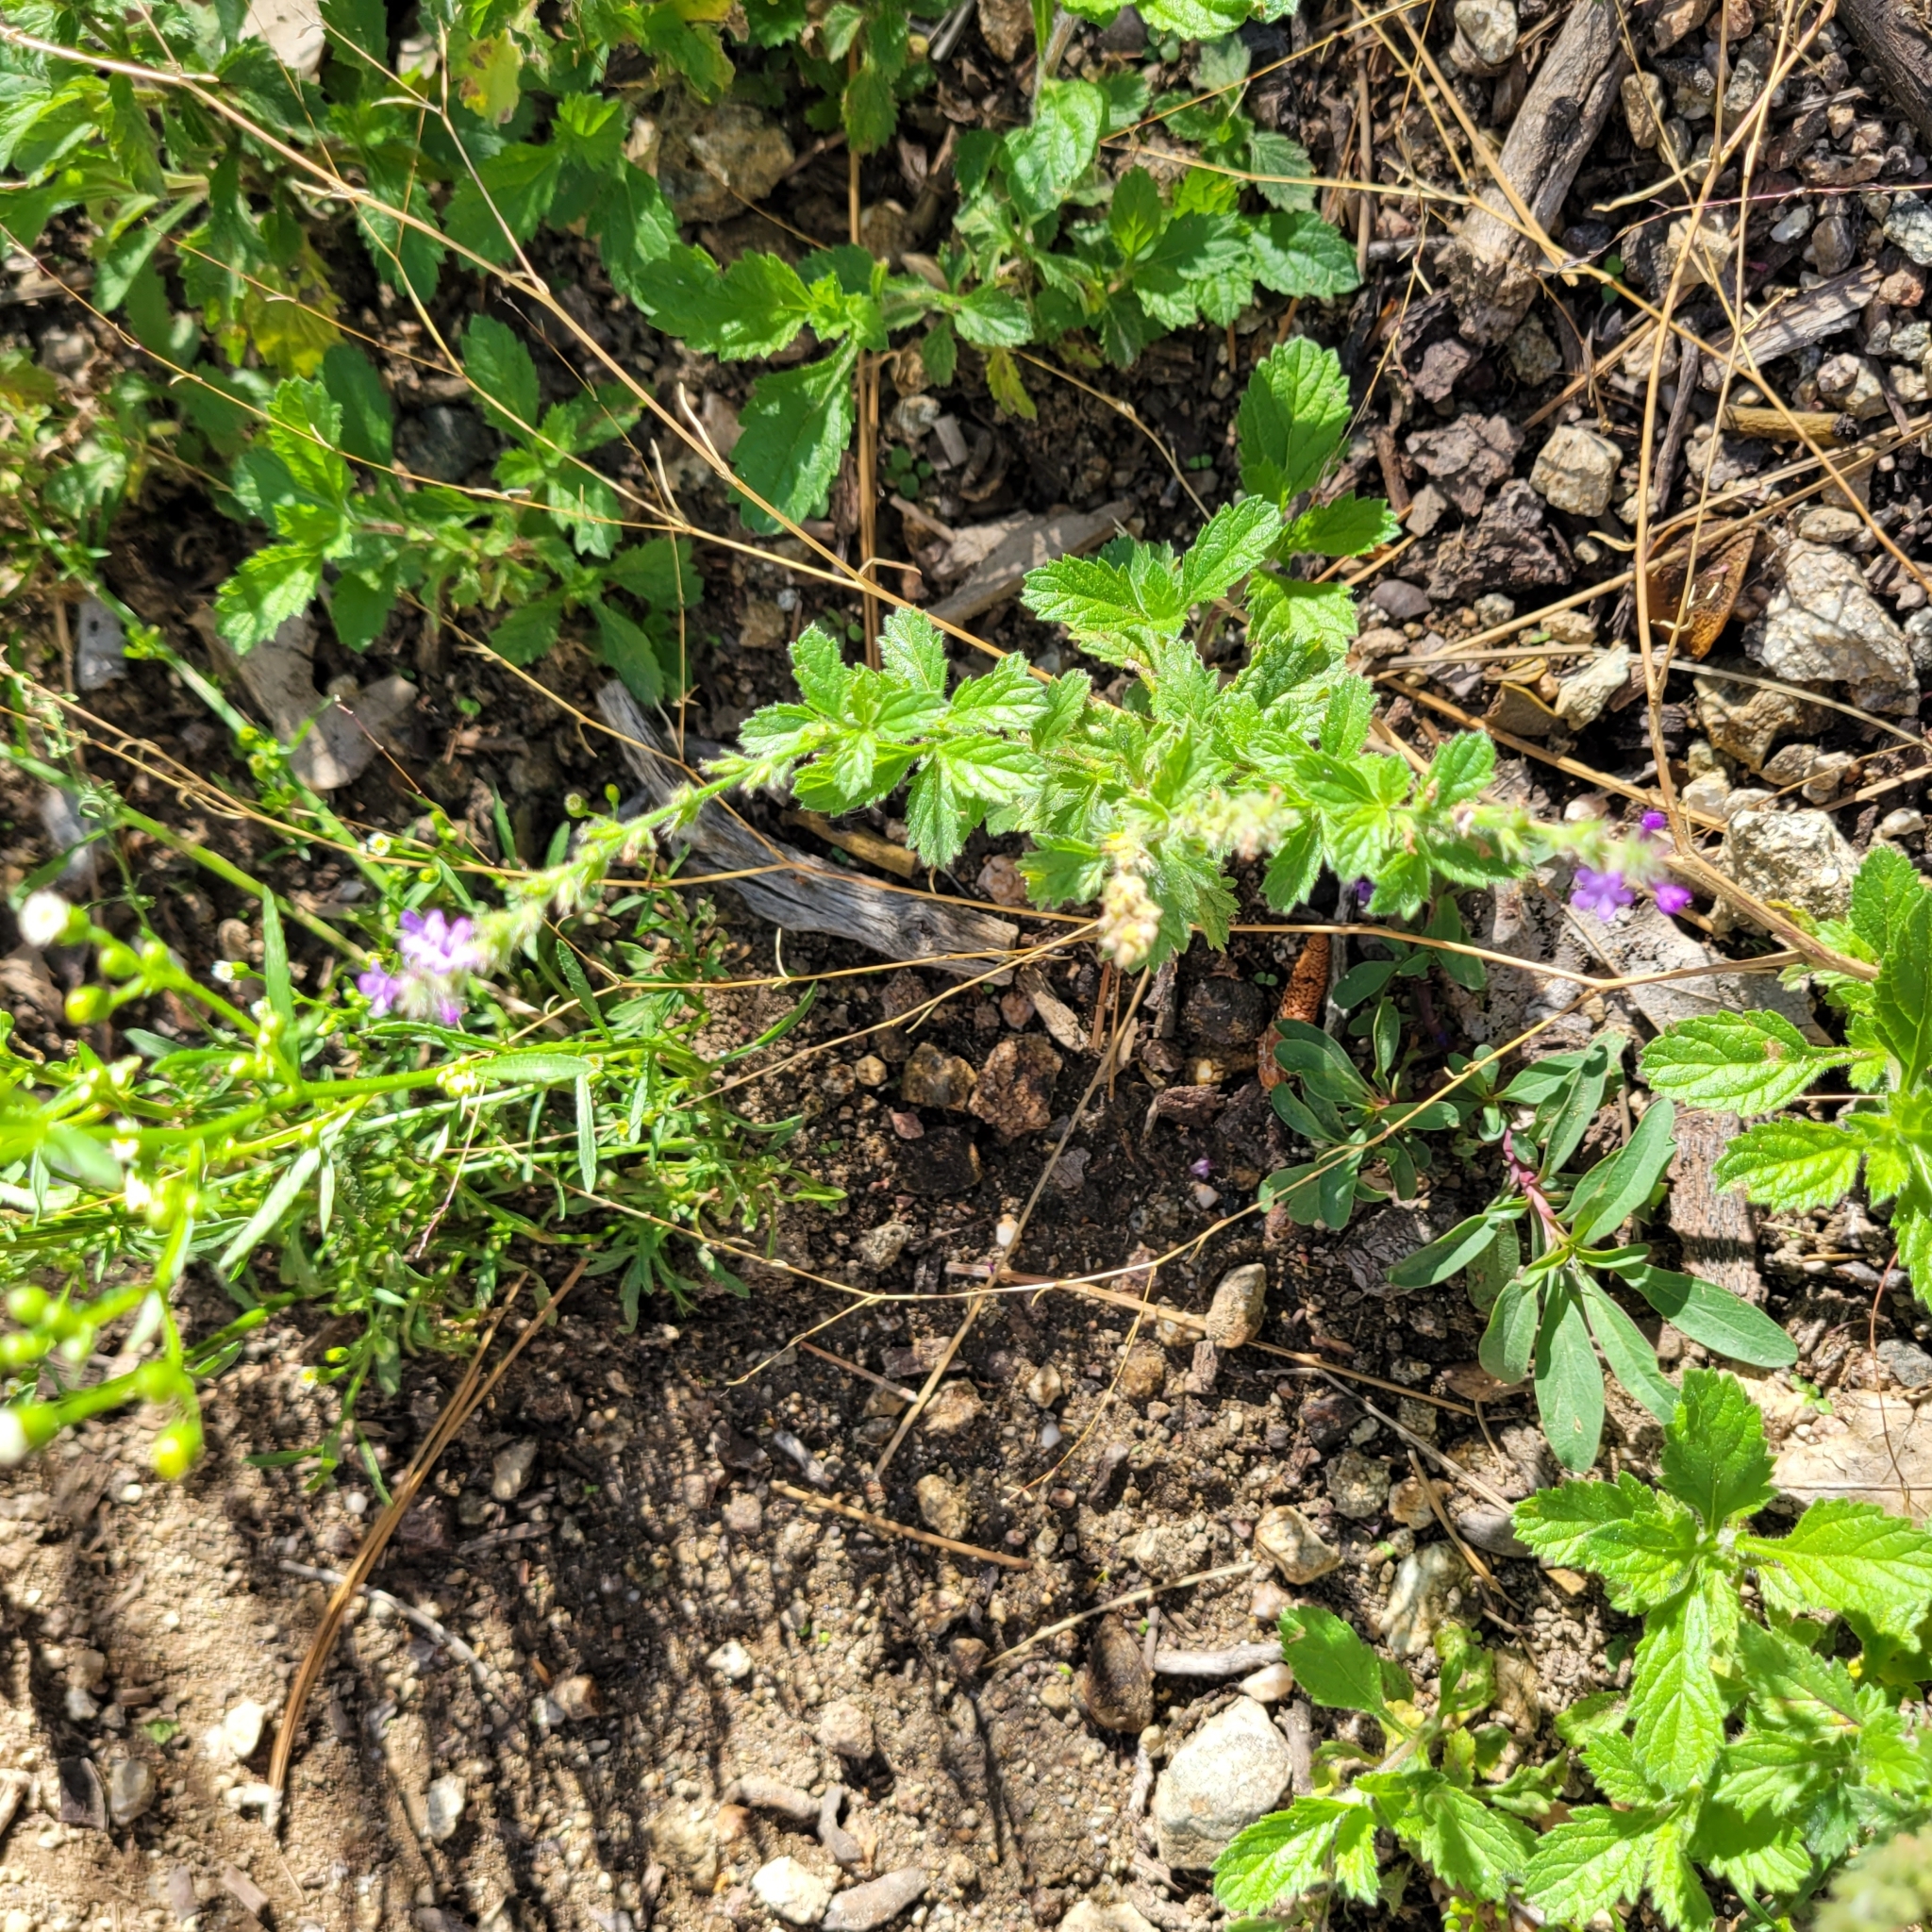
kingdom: Plantae
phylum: Tracheophyta
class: Magnoliopsida
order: Lamiales
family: Verbenaceae
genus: Verbena
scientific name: Verbena lasiostachys
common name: Vervain
